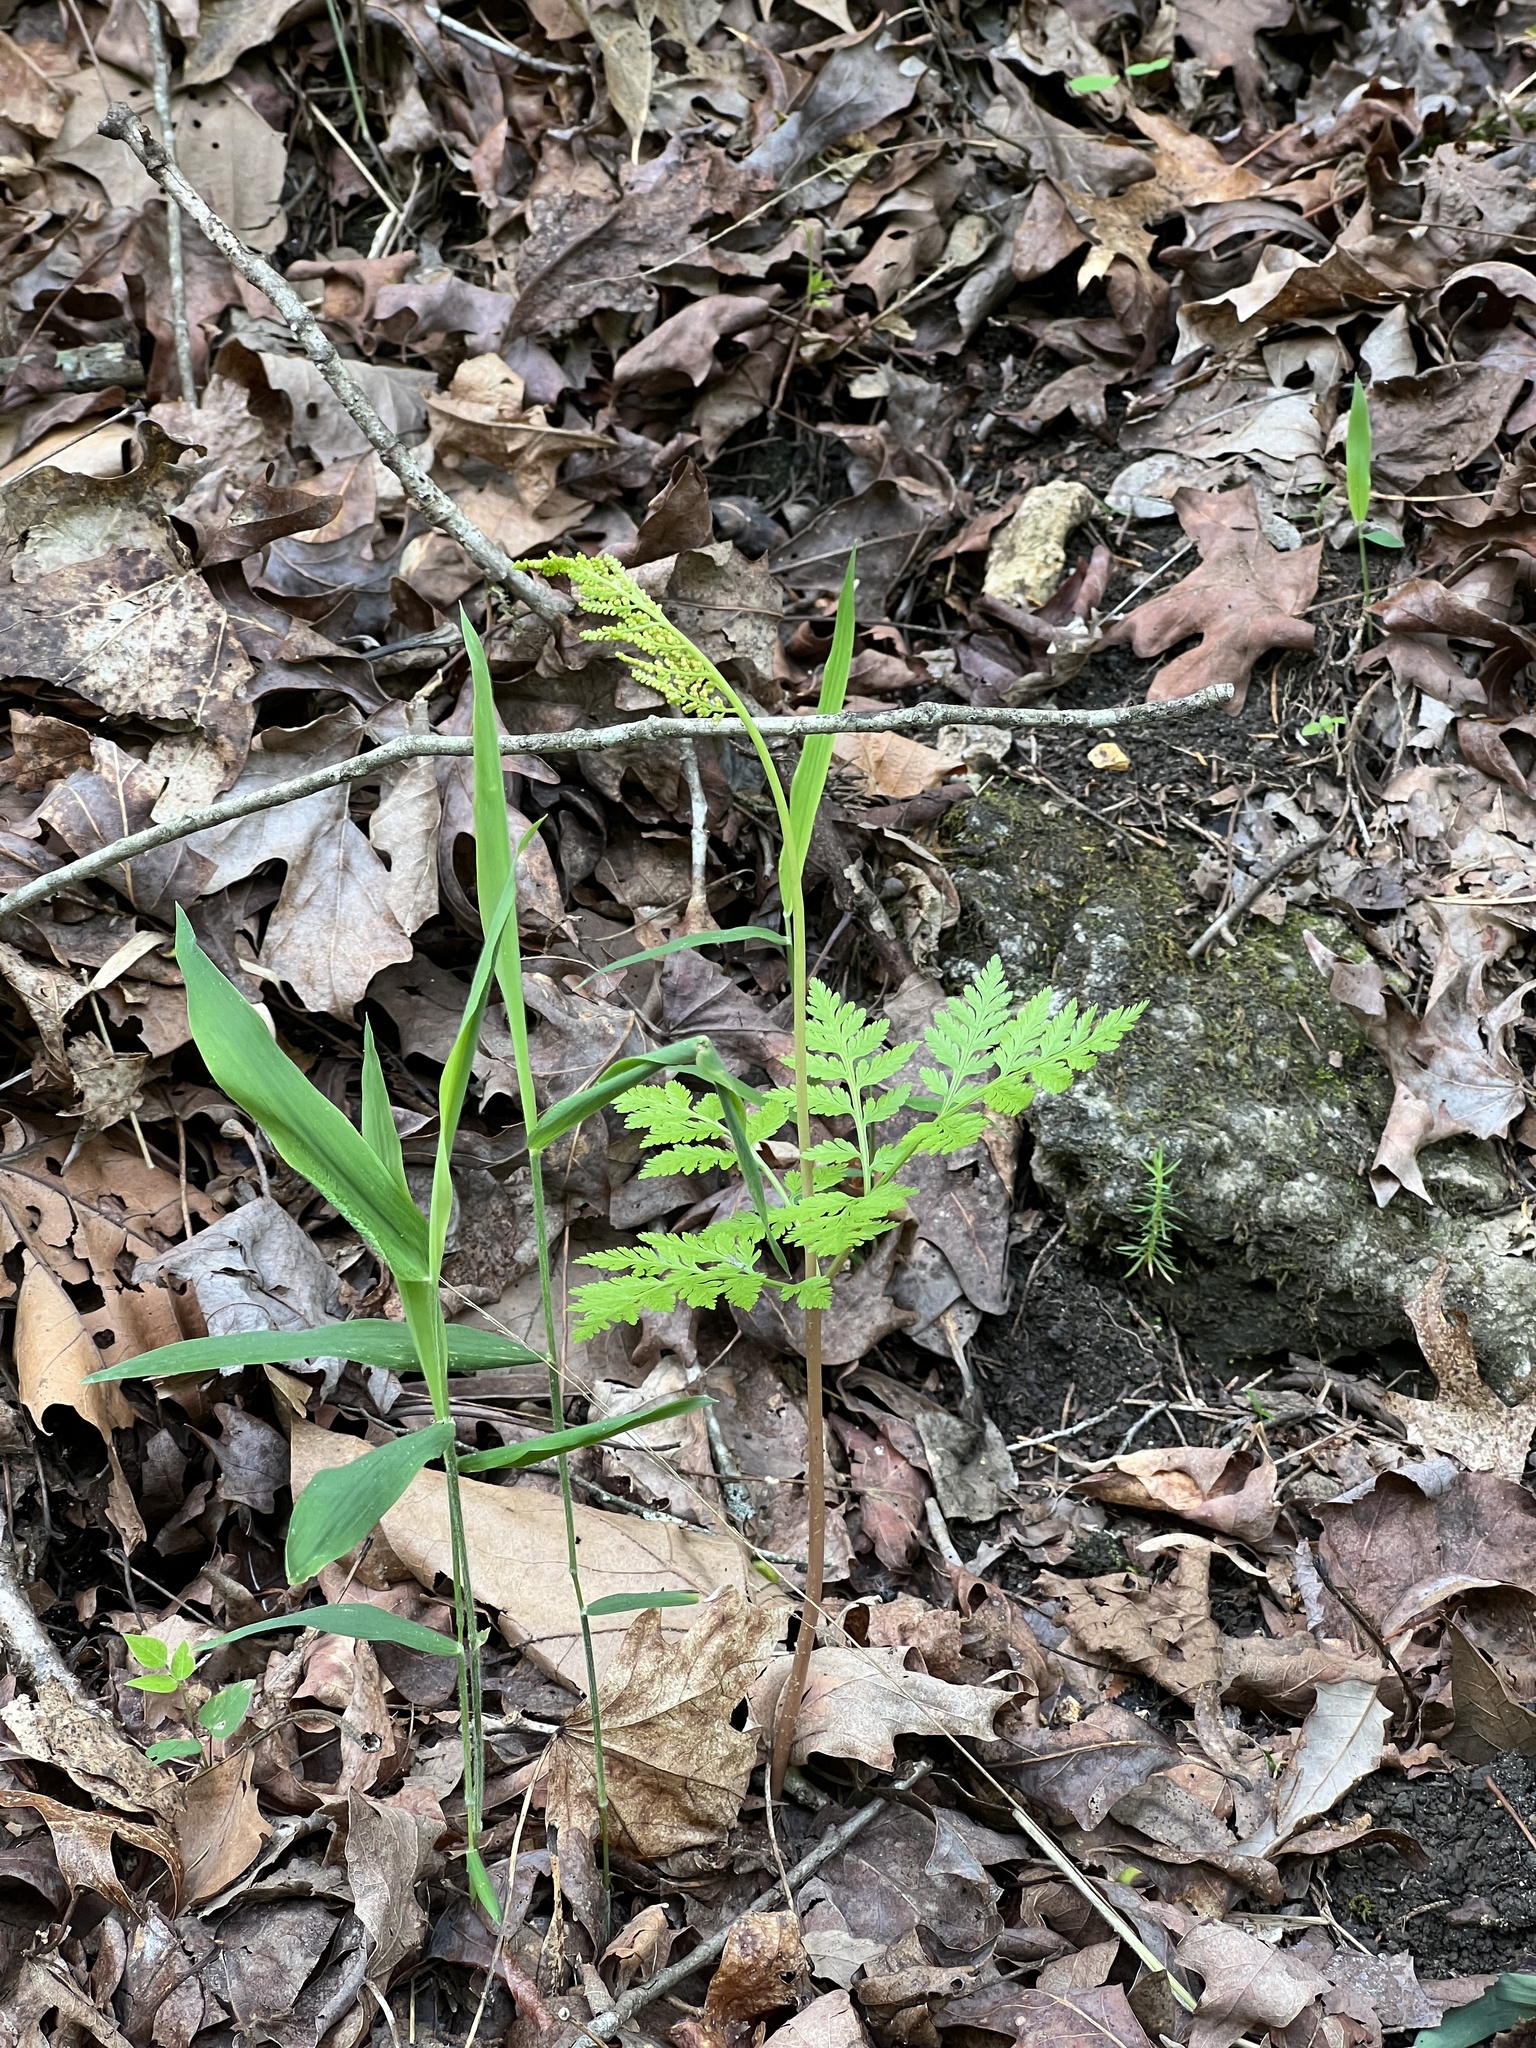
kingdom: Plantae
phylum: Tracheophyta
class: Polypodiopsida
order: Ophioglossales
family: Ophioglossaceae
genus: Botrypus
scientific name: Botrypus virginianus
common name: Common grapefern
